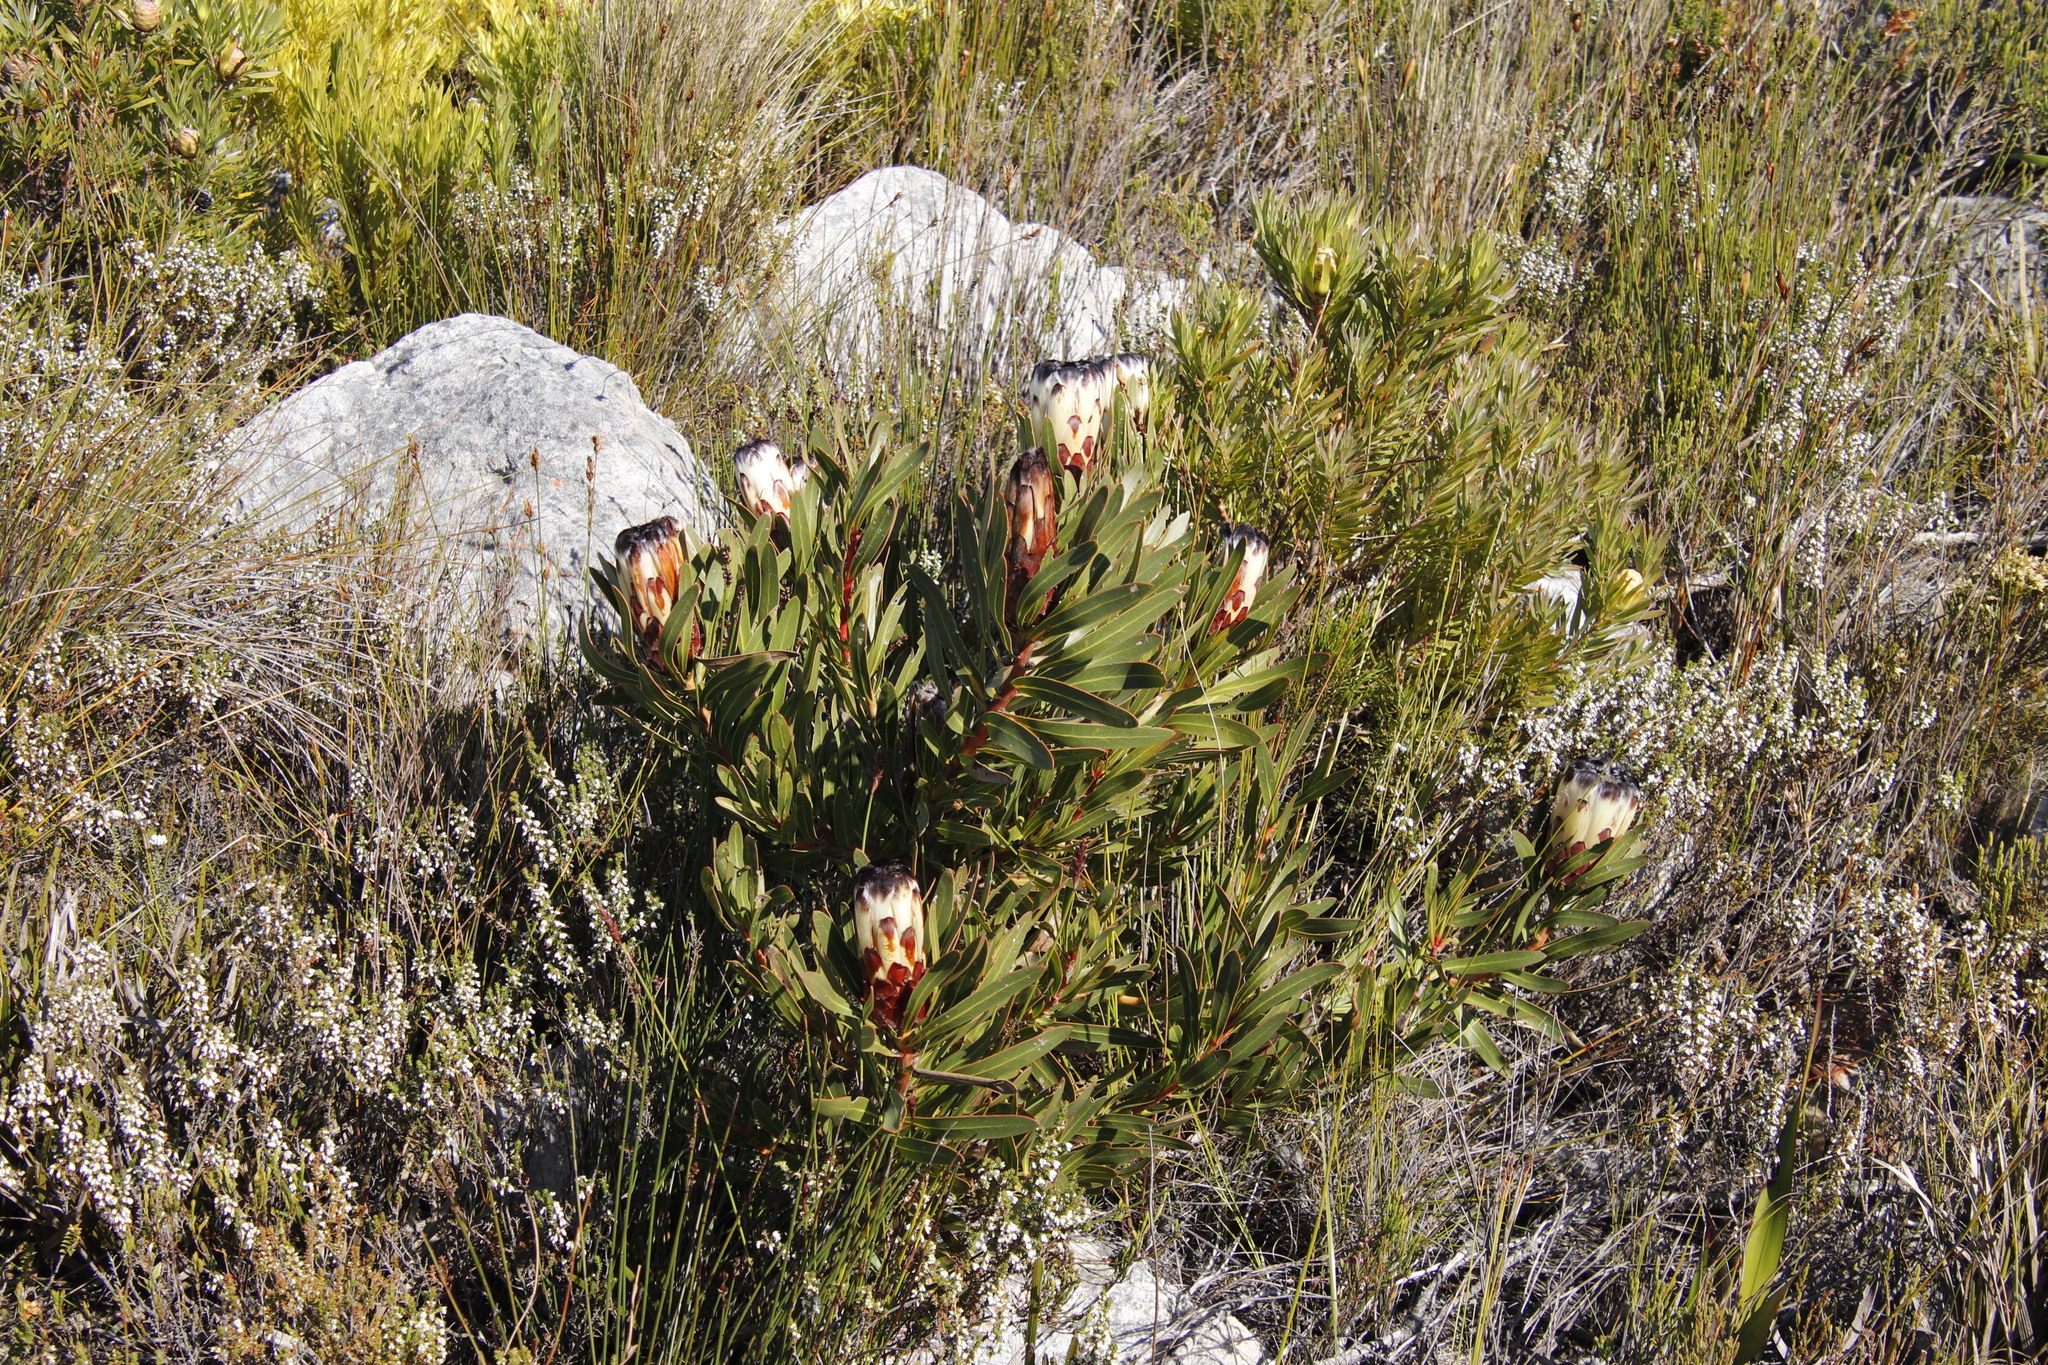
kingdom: Plantae
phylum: Tracheophyta
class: Magnoliopsida
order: Proteales
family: Proteaceae
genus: Protea
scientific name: Protea lepidocarpodendron
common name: Black-bearded protea
